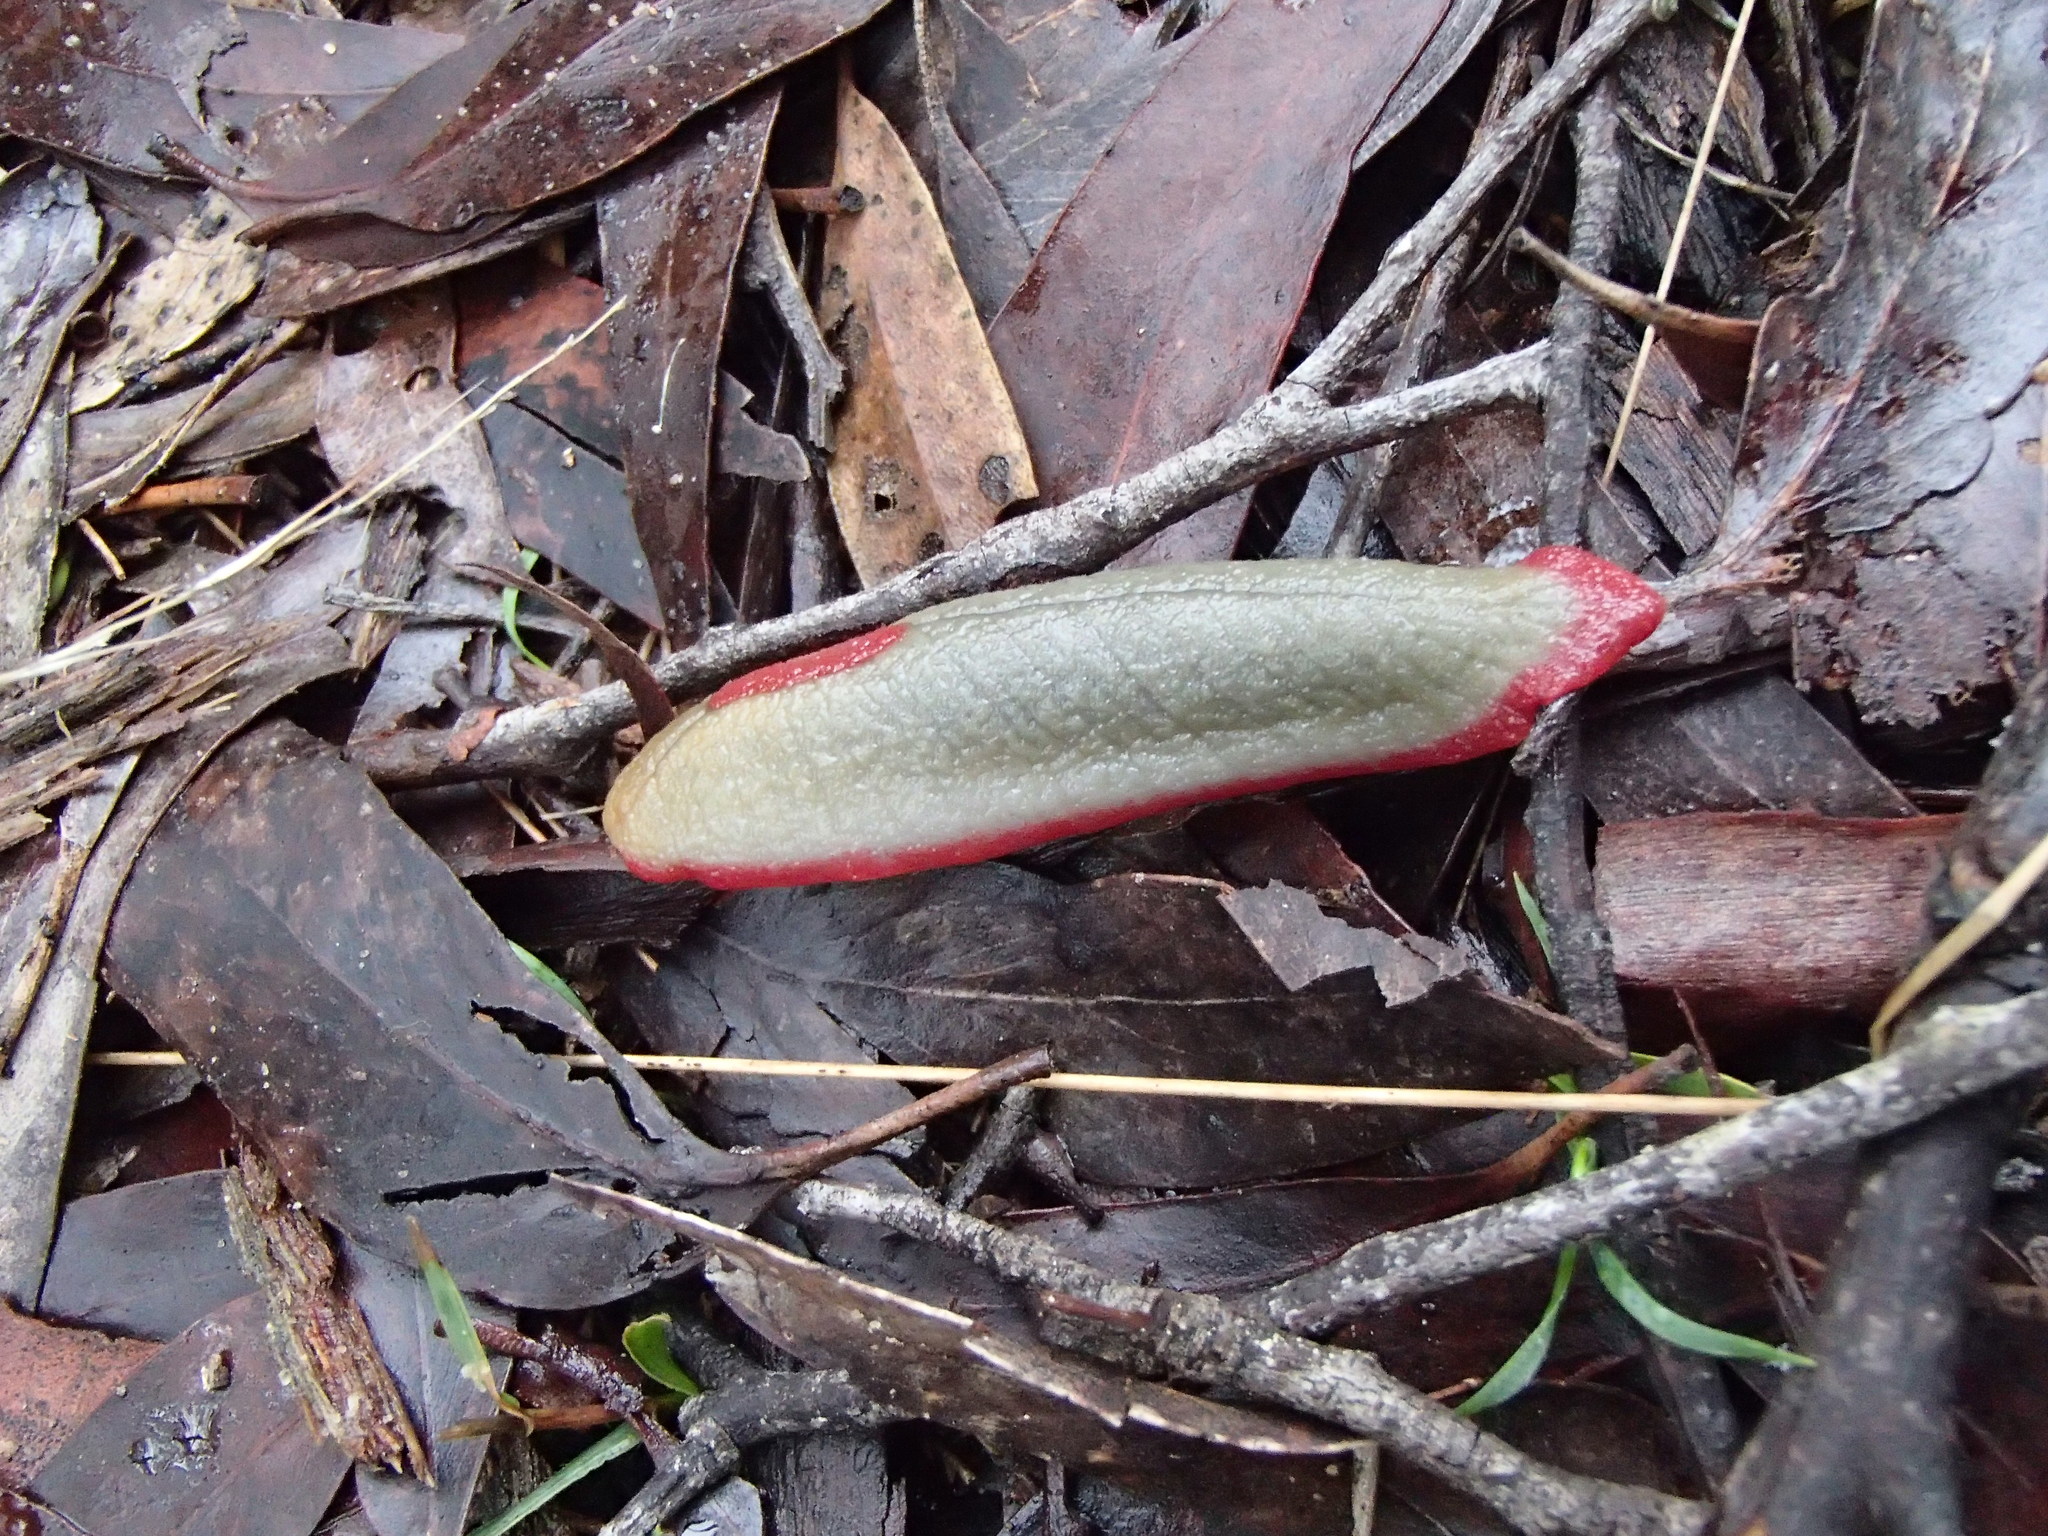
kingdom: Animalia
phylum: Mollusca
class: Gastropoda
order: Stylommatophora
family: Athoracophoridae
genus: Triboniophorus
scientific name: Triboniophorus graeffei
